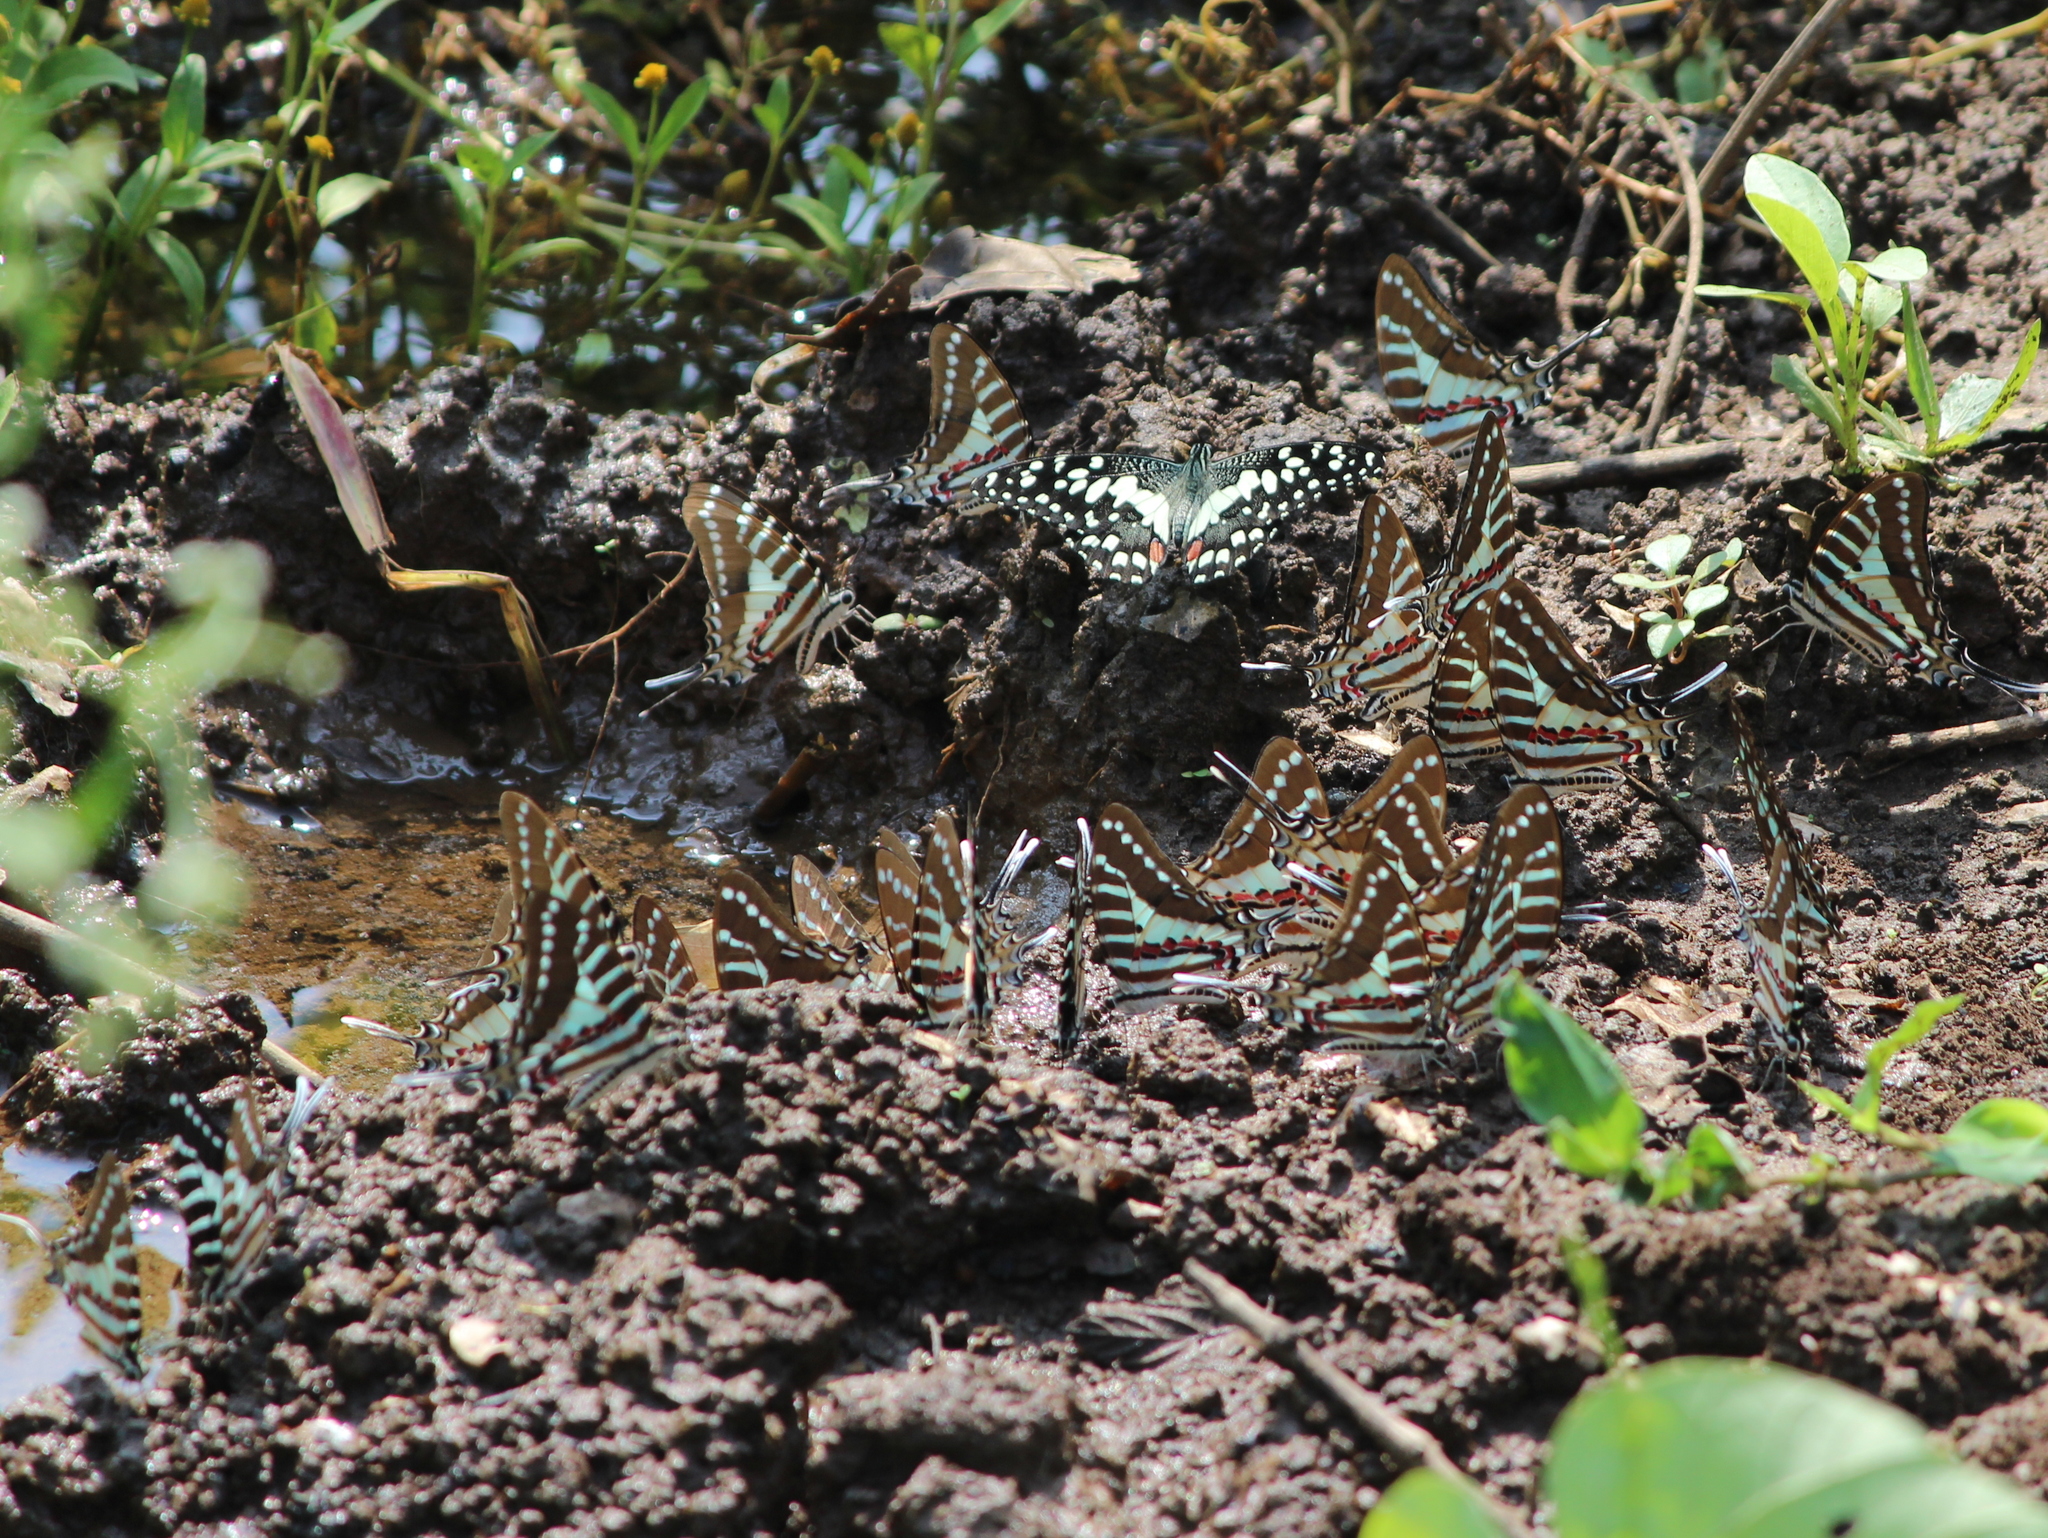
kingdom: Animalia
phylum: Arthropoda
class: Insecta
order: Lepidoptera
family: Papilionidae
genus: Graphium
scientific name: Graphium nomius
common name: Spot swordtail
